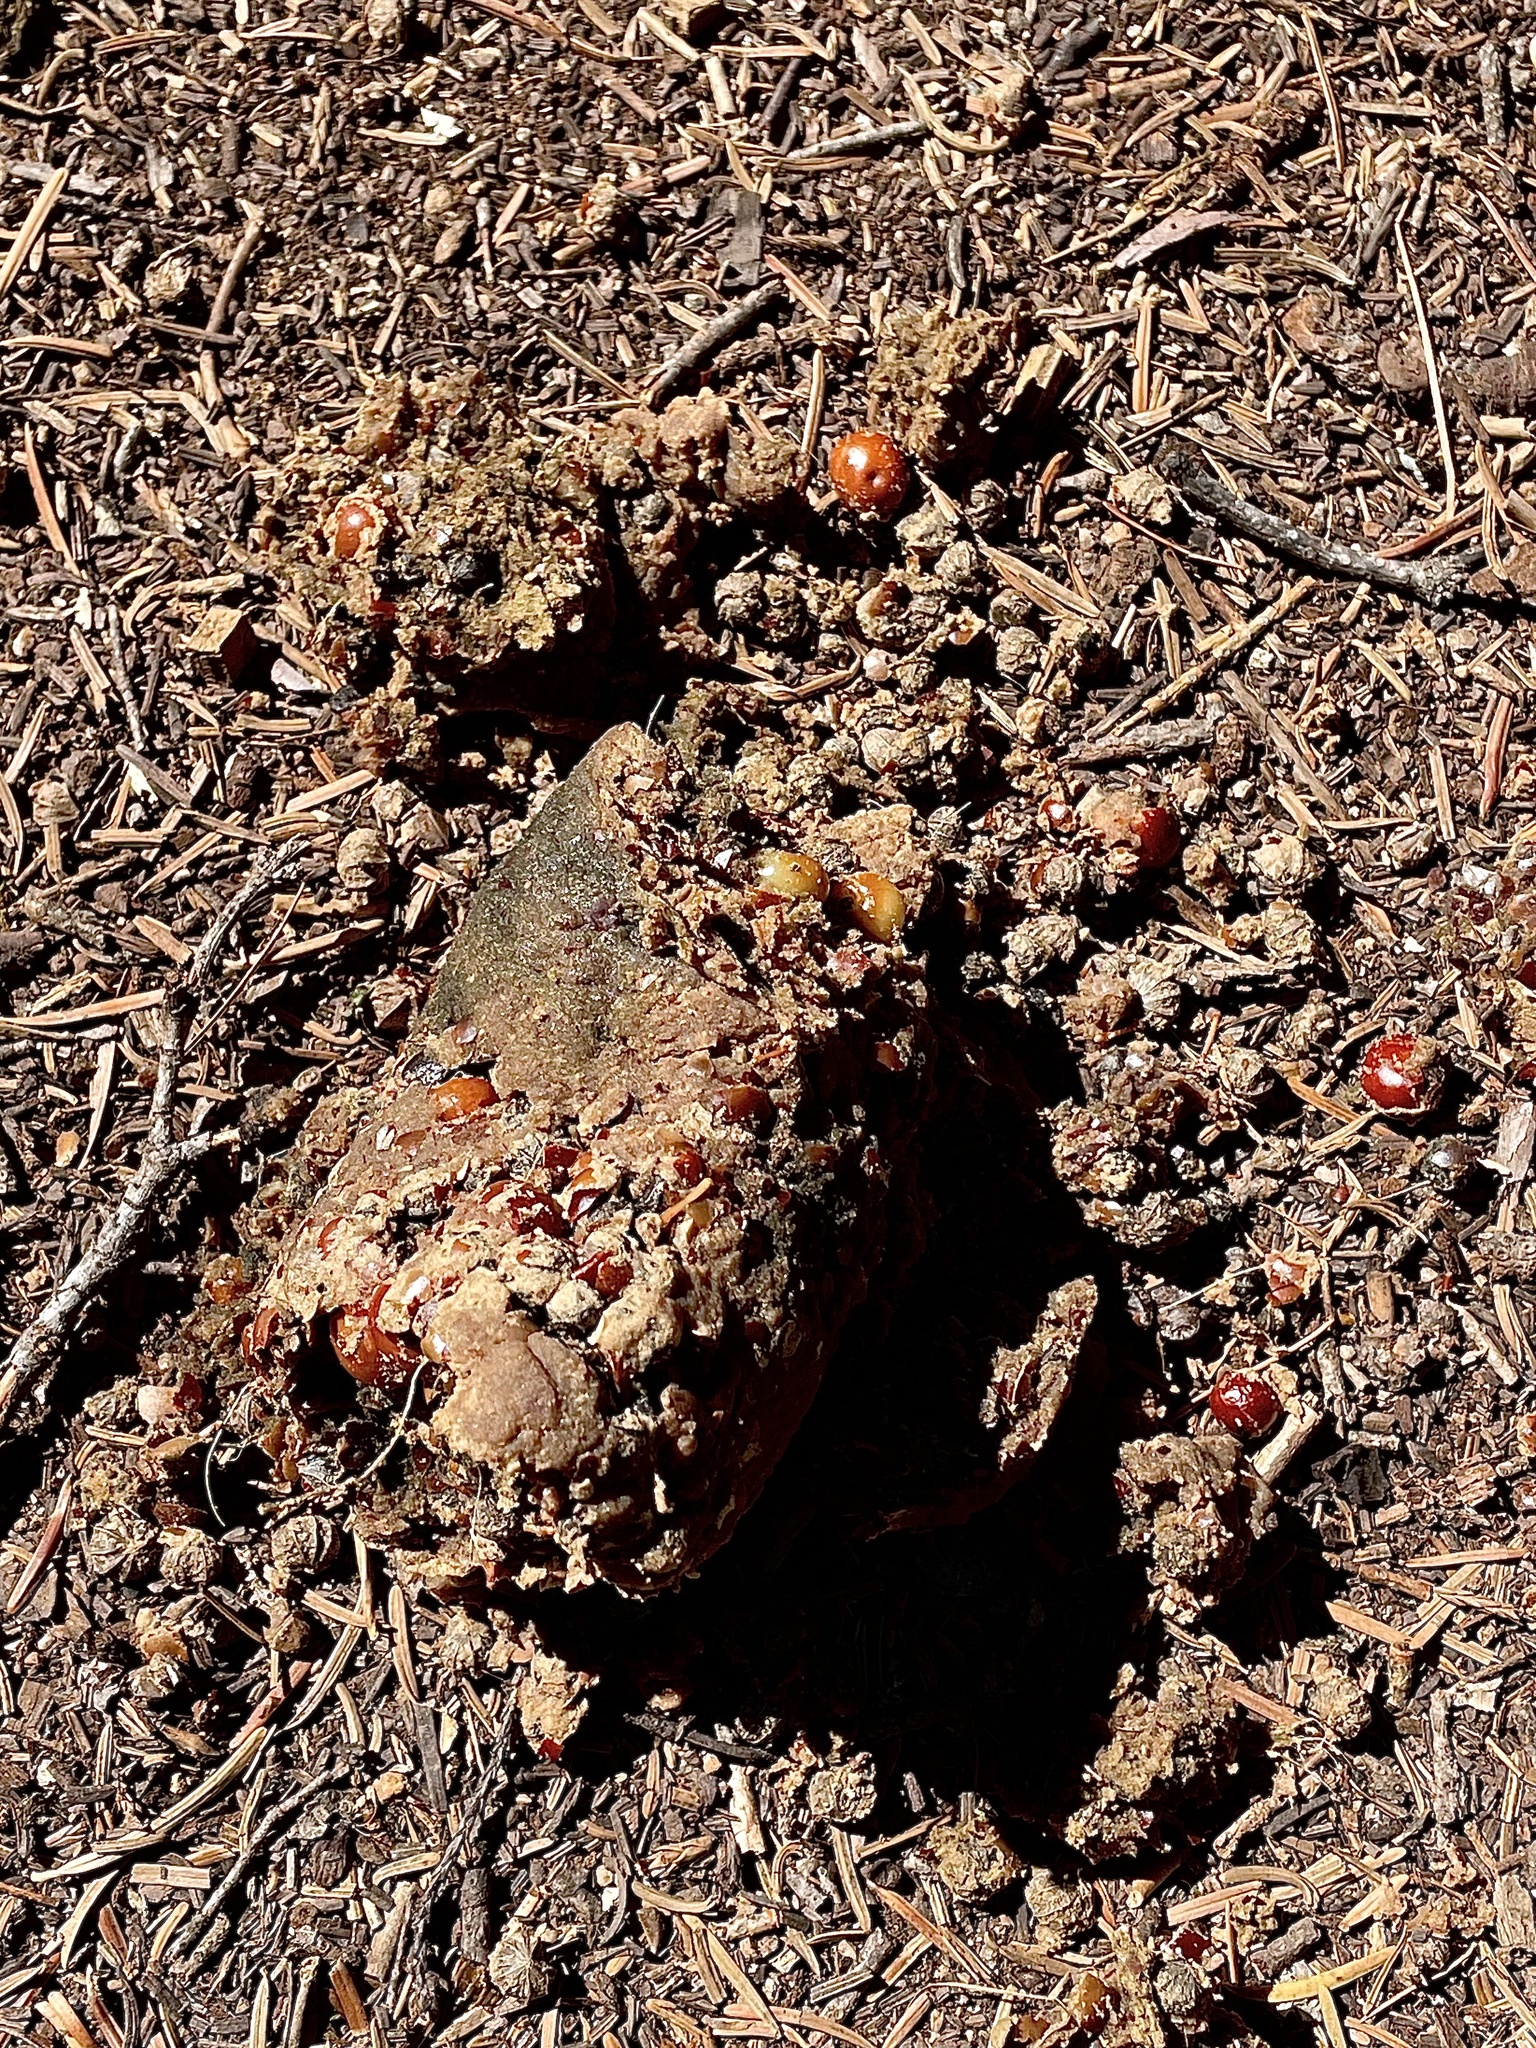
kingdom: Animalia
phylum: Chordata
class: Mammalia
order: Carnivora
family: Ursidae
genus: Ursus
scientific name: Ursus americanus
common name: American black bear
